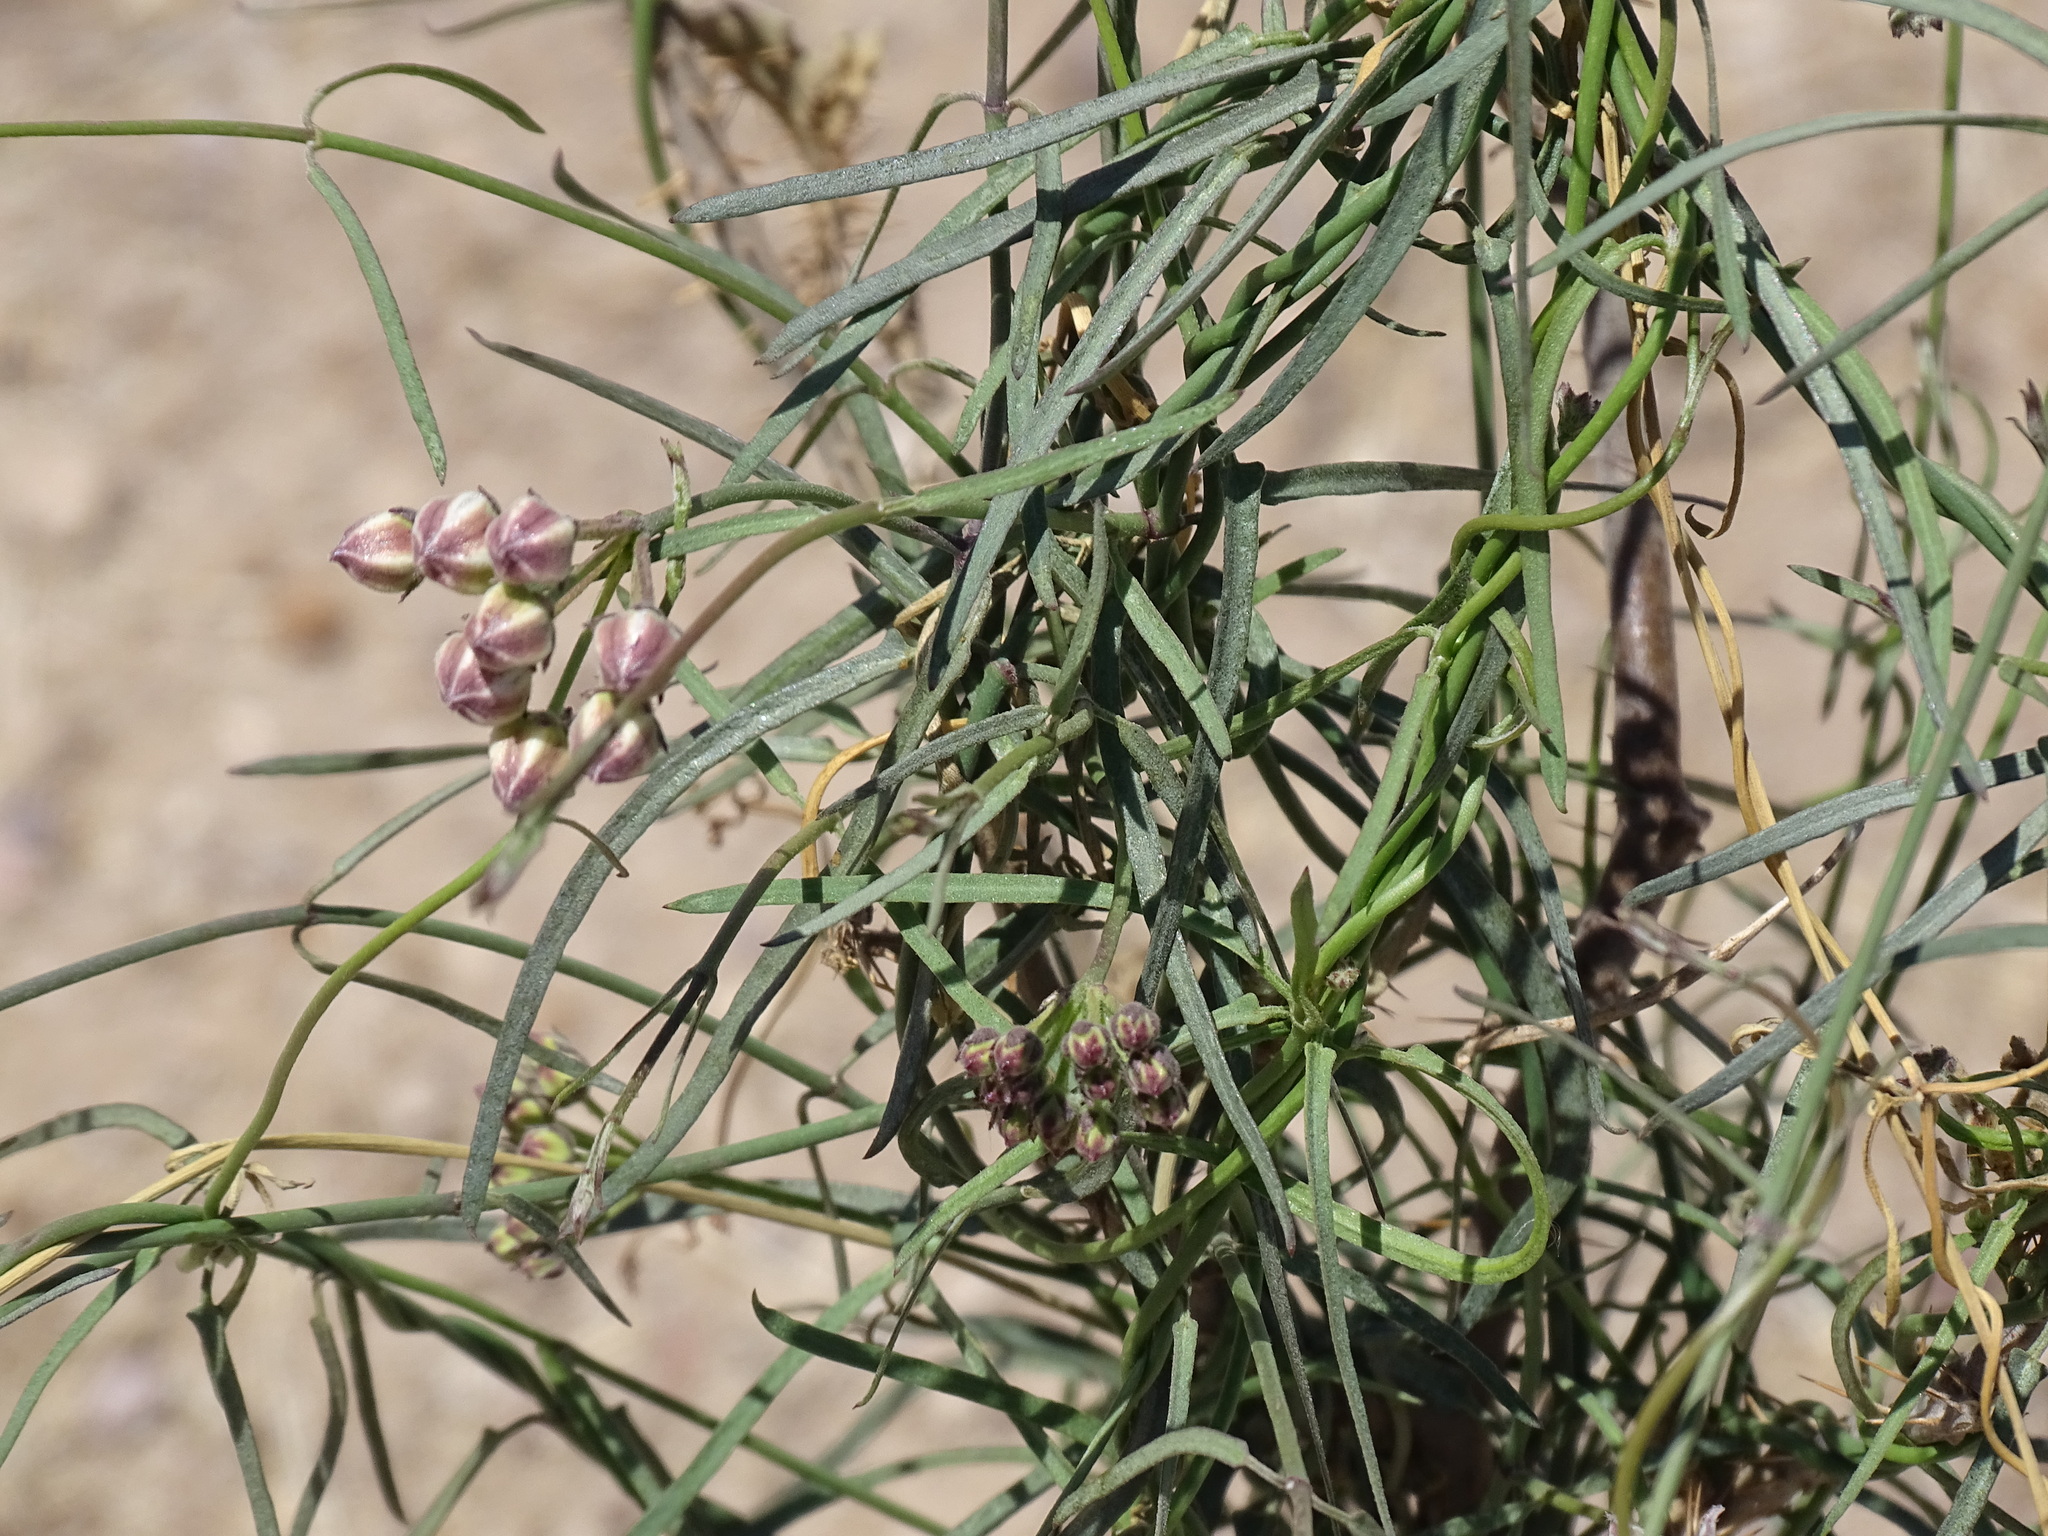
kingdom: Plantae
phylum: Tracheophyta
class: Magnoliopsida
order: Gentianales
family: Apocynaceae
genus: Funastrum
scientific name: Funastrum heterophyllum
